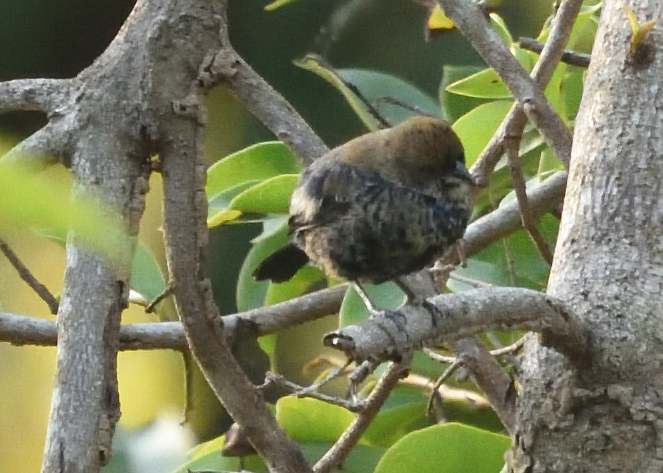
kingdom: Animalia
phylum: Chordata
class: Aves
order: Passeriformes
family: Thraupidae
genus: Volatinia
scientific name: Volatinia jacarina
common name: Blue-black grassquit
